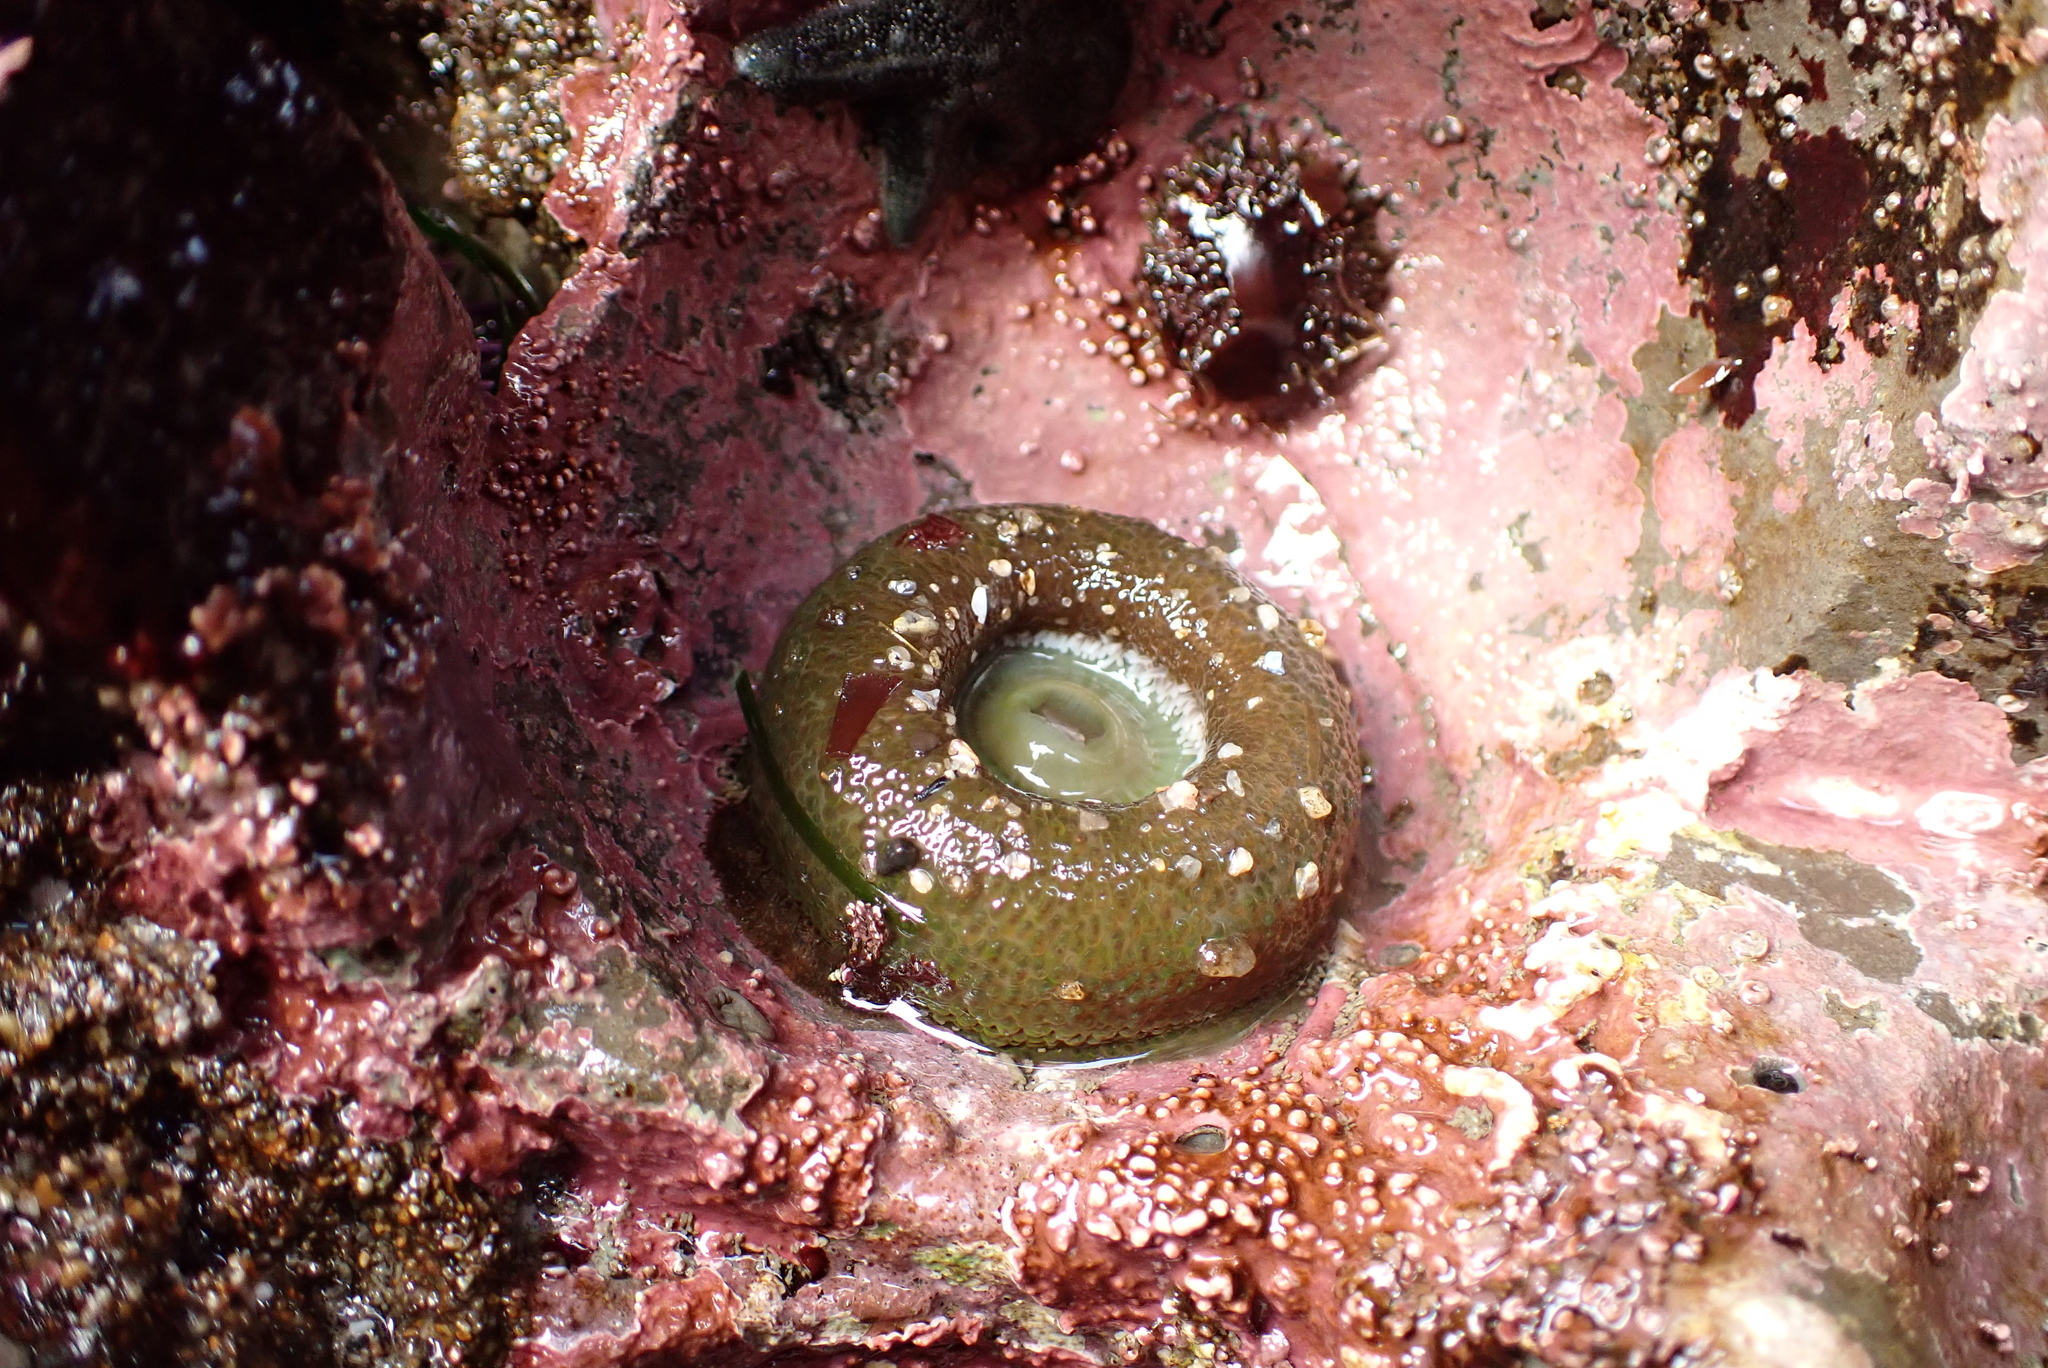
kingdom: Animalia
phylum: Cnidaria
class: Anthozoa
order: Actiniaria
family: Actiniidae
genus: Anthopleura
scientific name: Anthopleura xanthogrammica
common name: Giant green anemone
